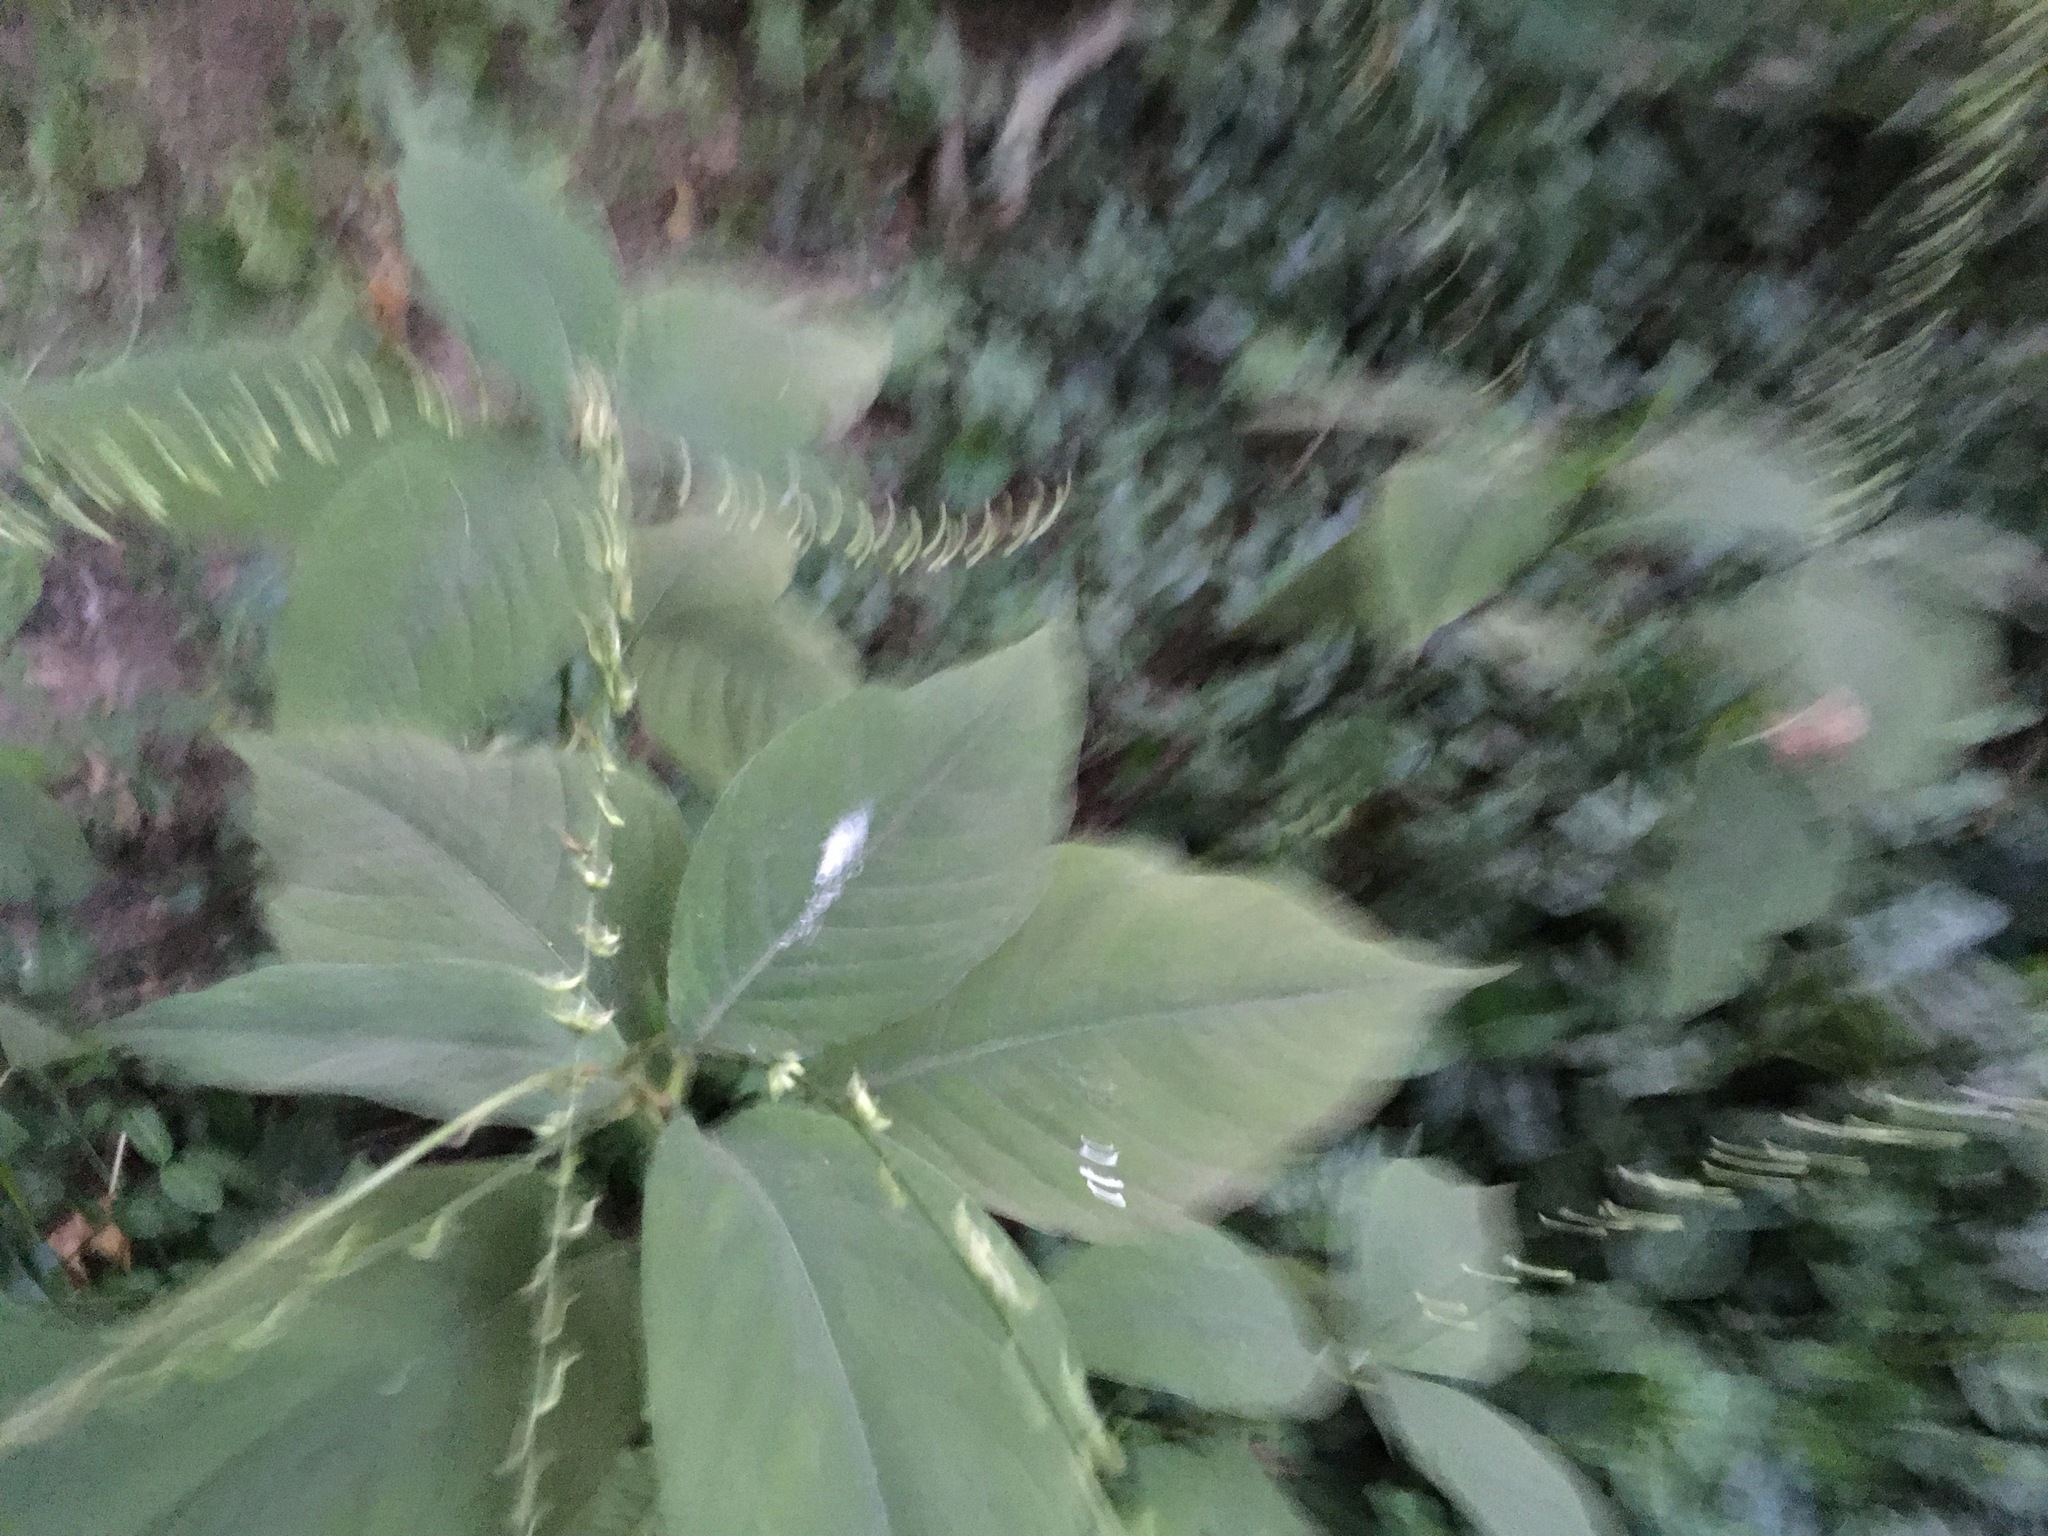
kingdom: Plantae
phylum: Tracheophyta
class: Magnoliopsida
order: Caryophyllales
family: Polygonaceae
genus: Persicaria
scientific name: Persicaria virginiana
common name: Jumpseed
